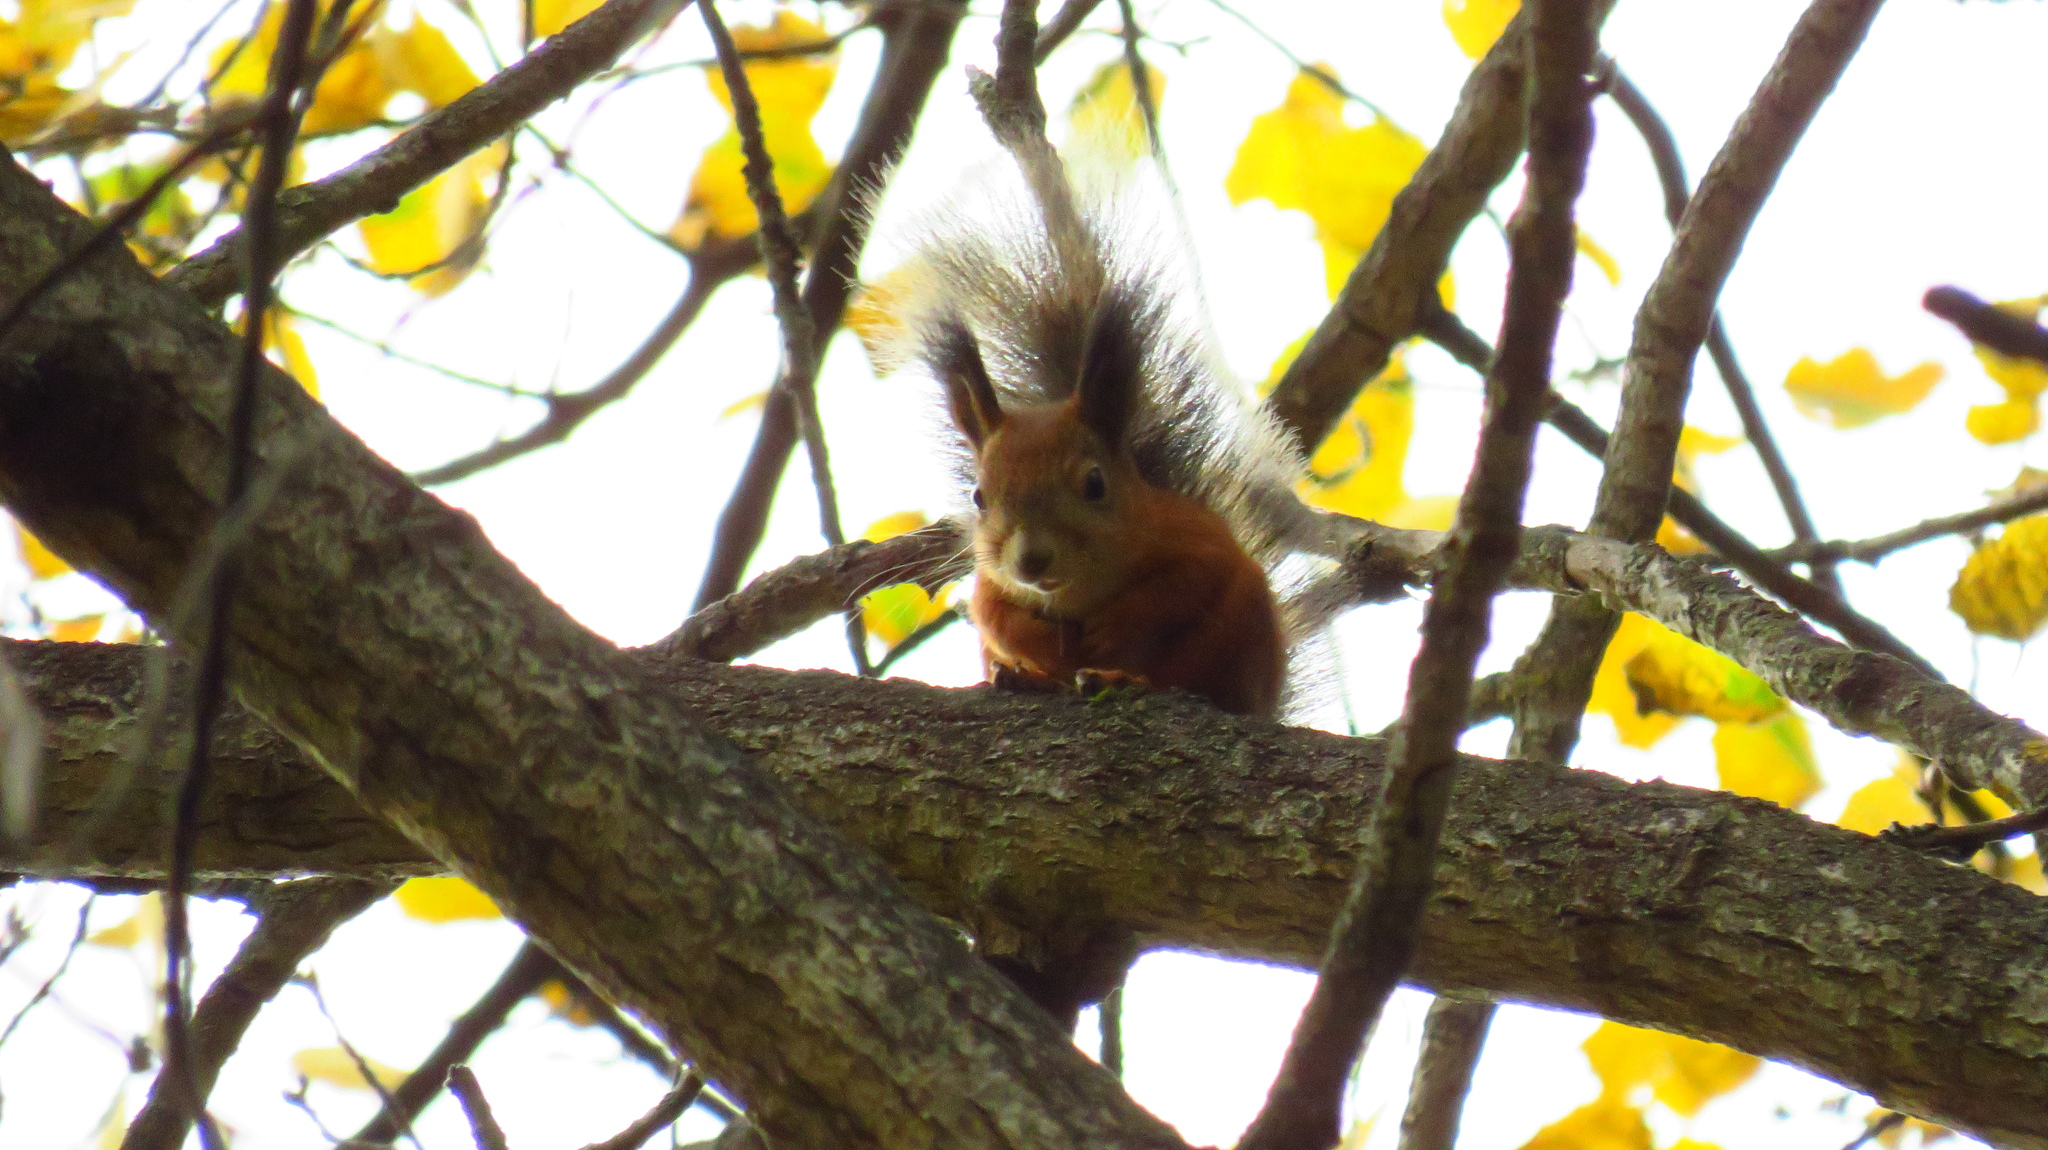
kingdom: Animalia
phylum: Chordata
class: Mammalia
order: Rodentia
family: Sciuridae
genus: Sciurus
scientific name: Sciurus vulgaris
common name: Eurasian red squirrel
